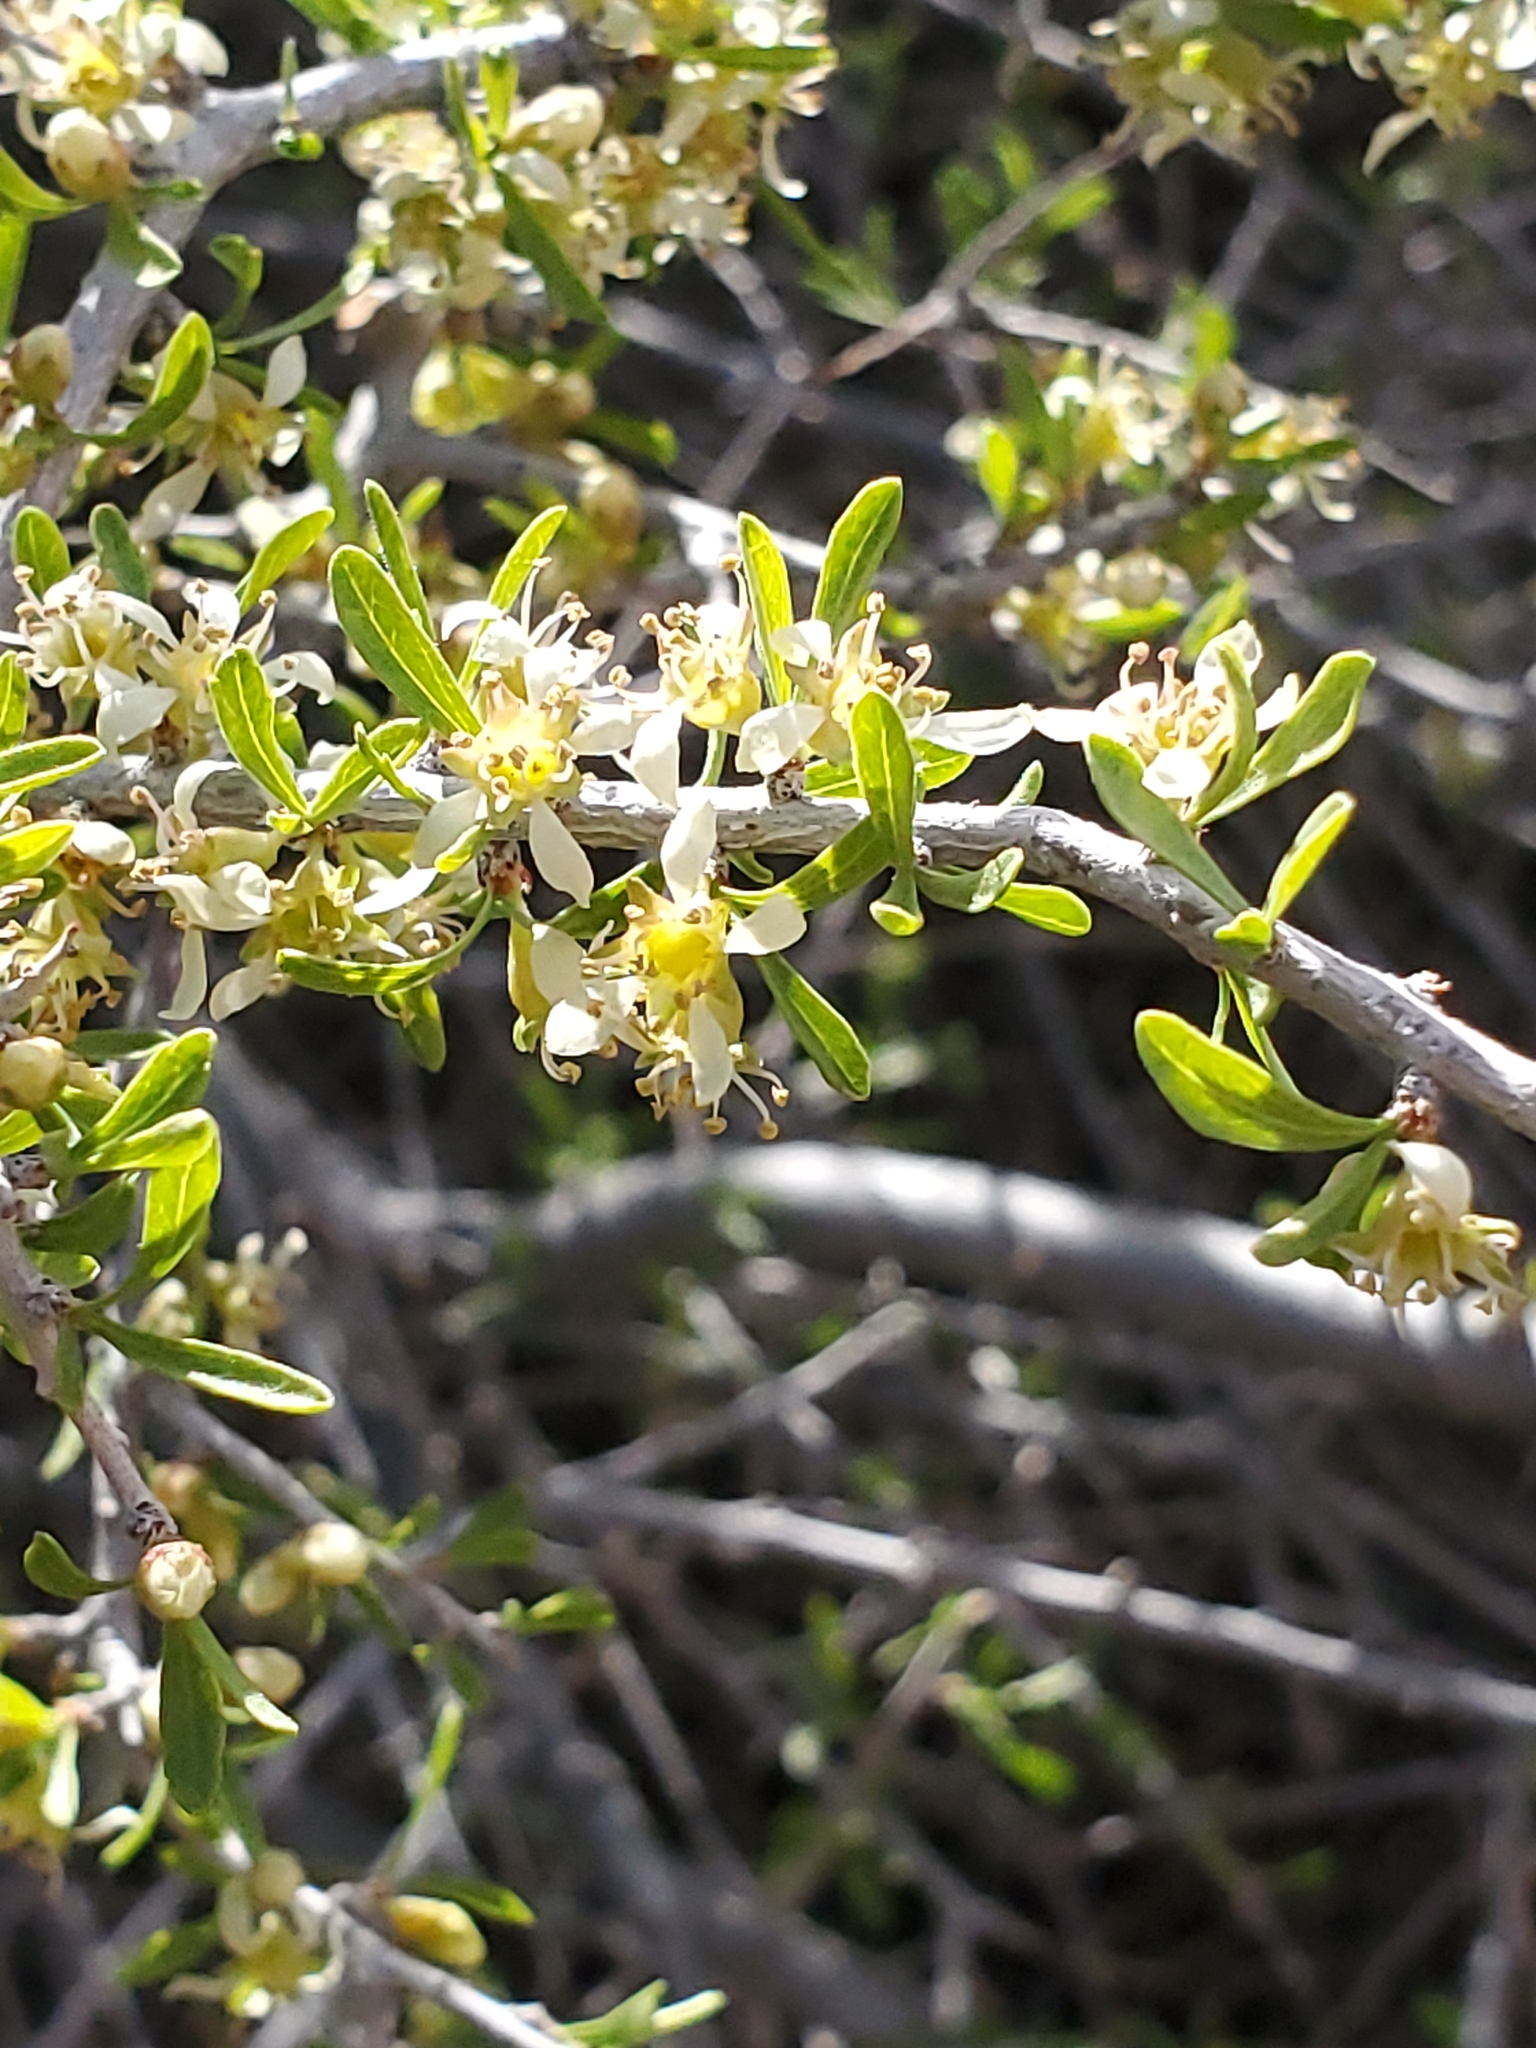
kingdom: Plantae
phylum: Tracheophyta
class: Magnoliopsida
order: Rosales
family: Rosaceae
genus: Prunus
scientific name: Prunus fasciculata
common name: Desert almond
